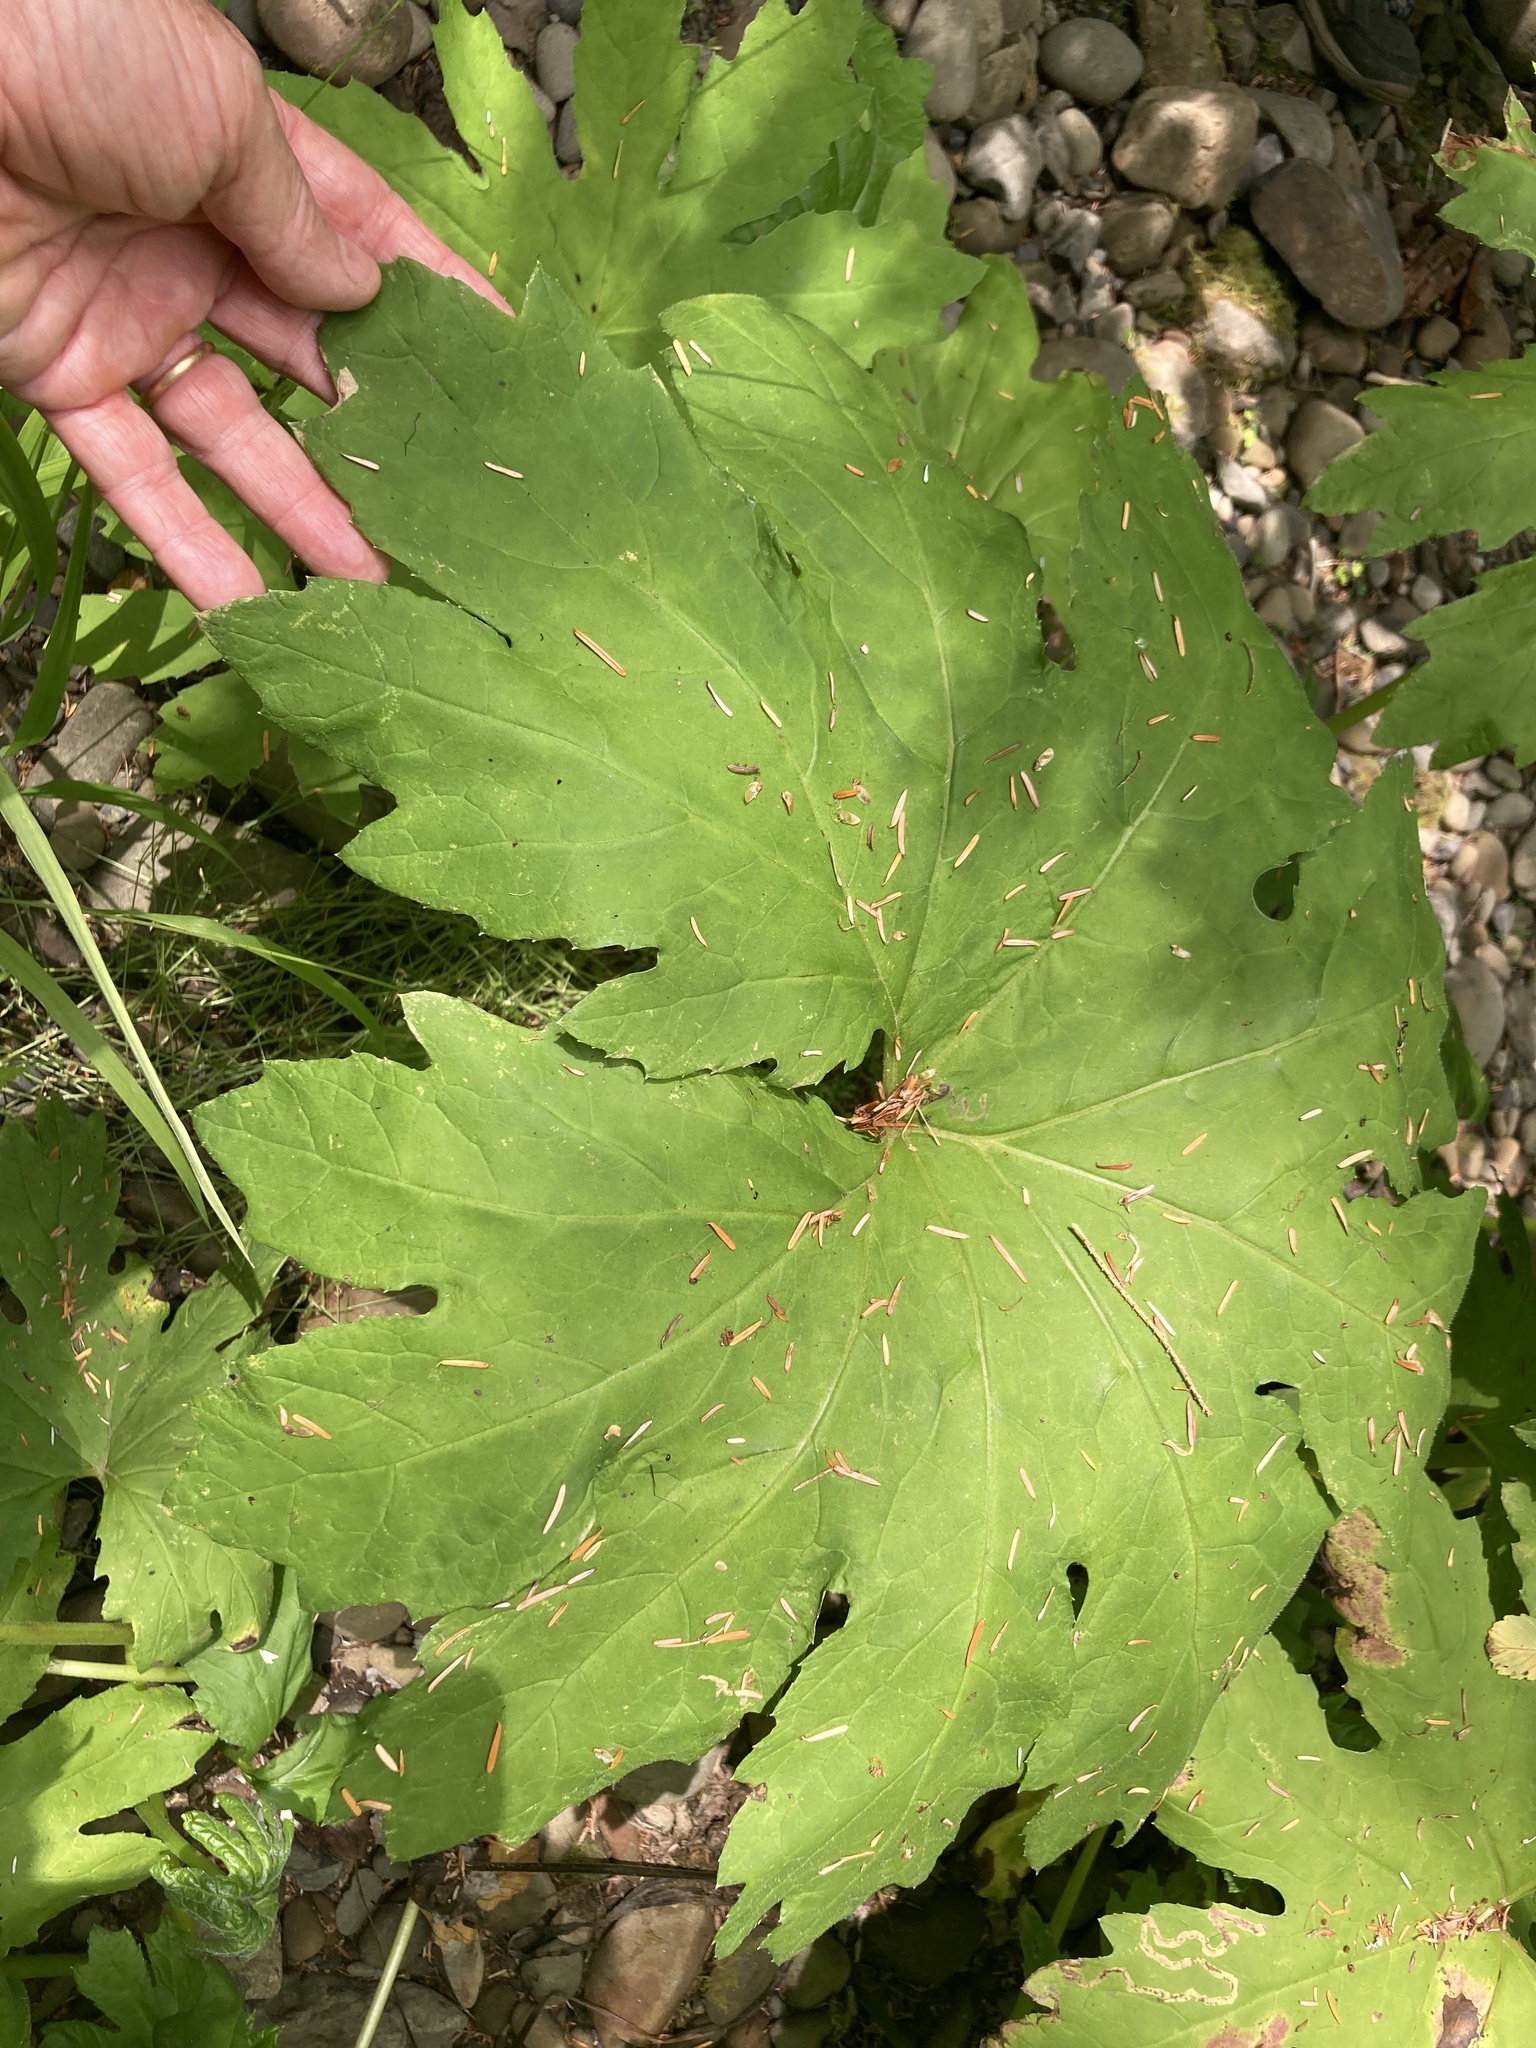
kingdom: Plantae
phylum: Tracheophyta
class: Magnoliopsida
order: Asterales
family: Asteraceae
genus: Petasites
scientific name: Petasites frigidus
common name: Arctic butterbur
